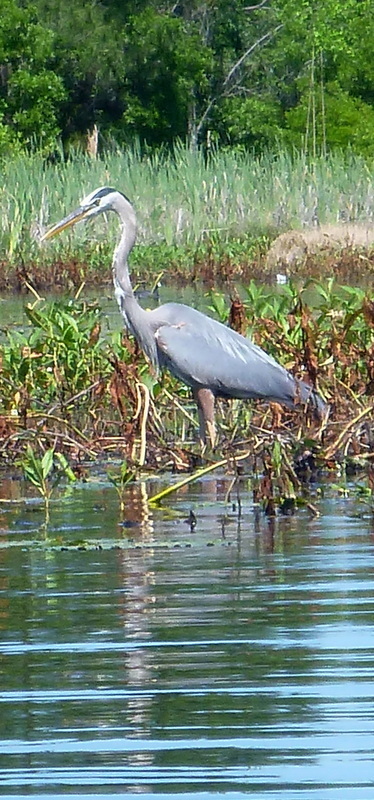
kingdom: Animalia
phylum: Chordata
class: Aves
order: Pelecaniformes
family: Ardeidae
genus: Ardea
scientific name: Ardea herodias
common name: Great blue heron
